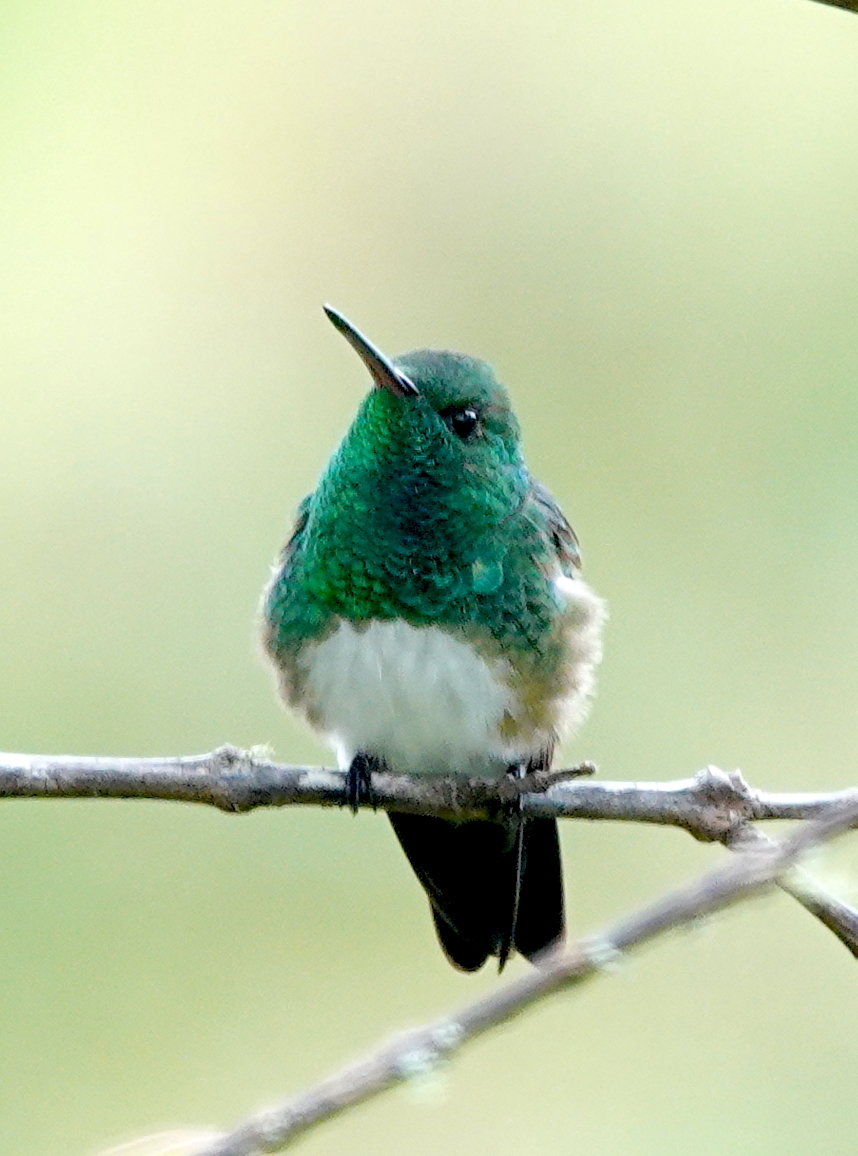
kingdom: Animalia
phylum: Chordata
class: Aves
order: Apodiformes
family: Trochilidae
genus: Saucerottia
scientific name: Saucerottia edward
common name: Snowy-bellied hummingbird
